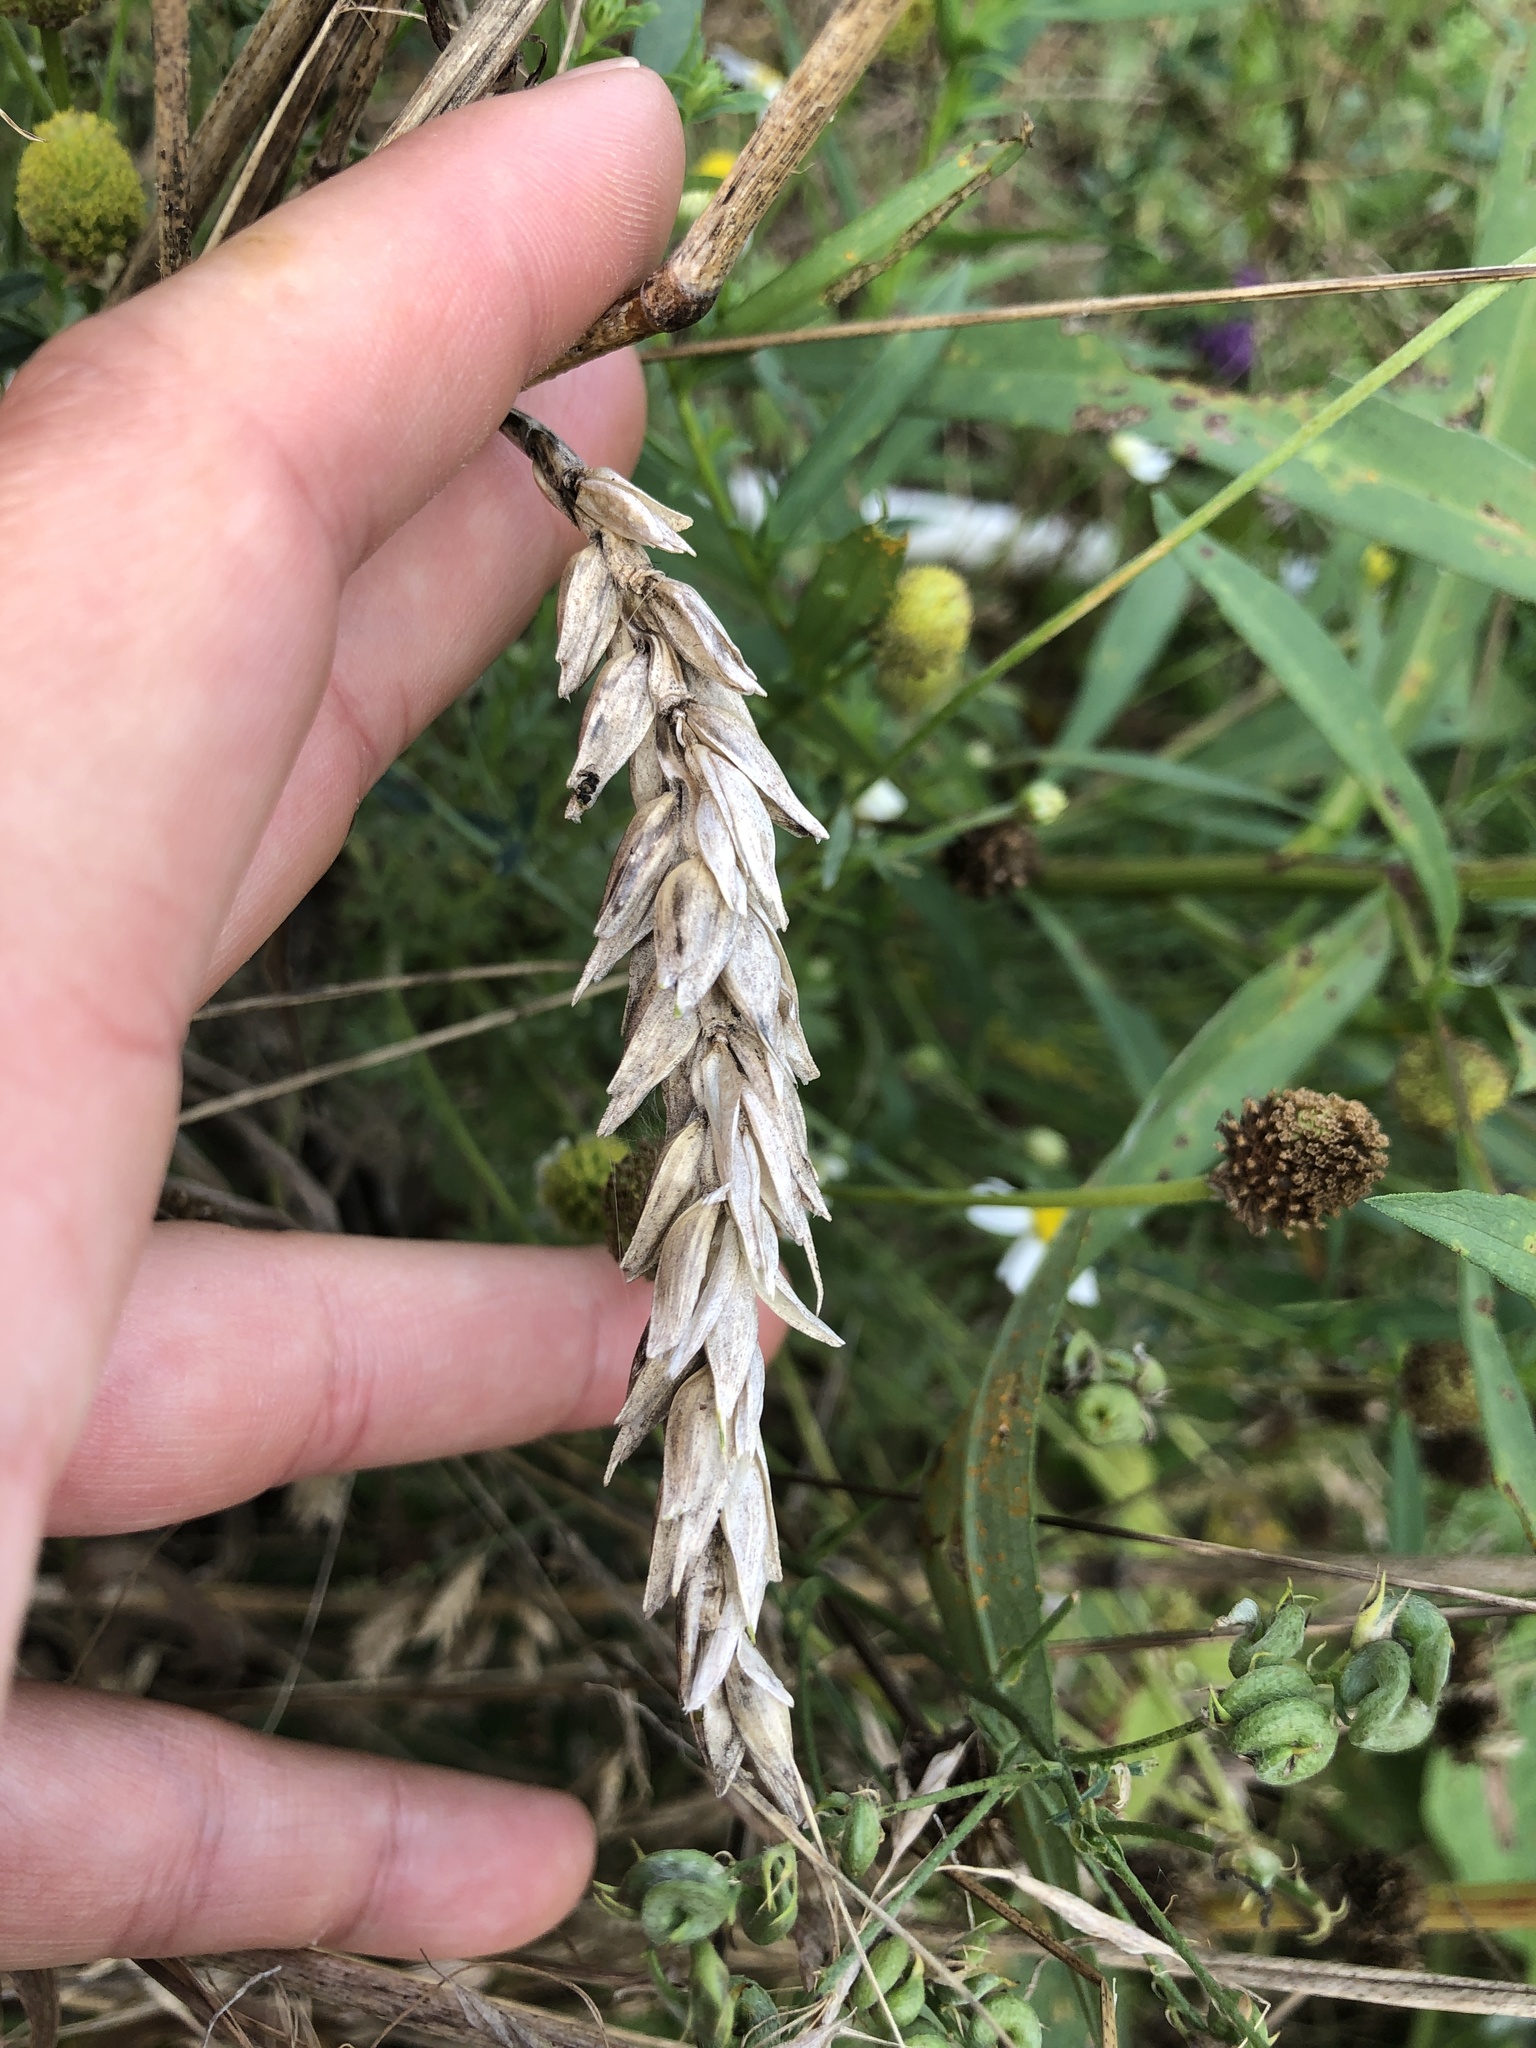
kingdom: Plantae
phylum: Tracheophyta
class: Liliopsida
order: Poales
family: Poaceae
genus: Triticum
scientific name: Triticum aestivum
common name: Common wheat
